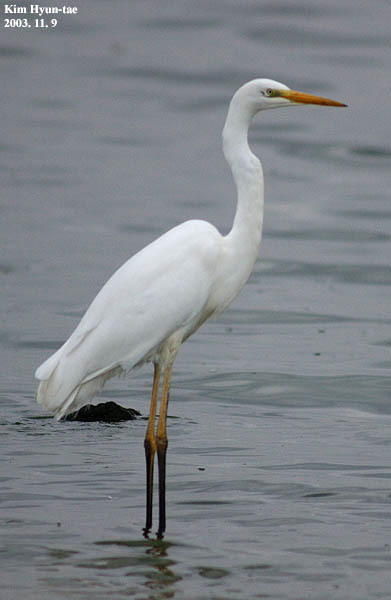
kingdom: Animalia
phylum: Chordata
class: Aves
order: Pelecaniformes
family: Ardeidae
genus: Ardea
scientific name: Ardea alba
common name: Great egret
